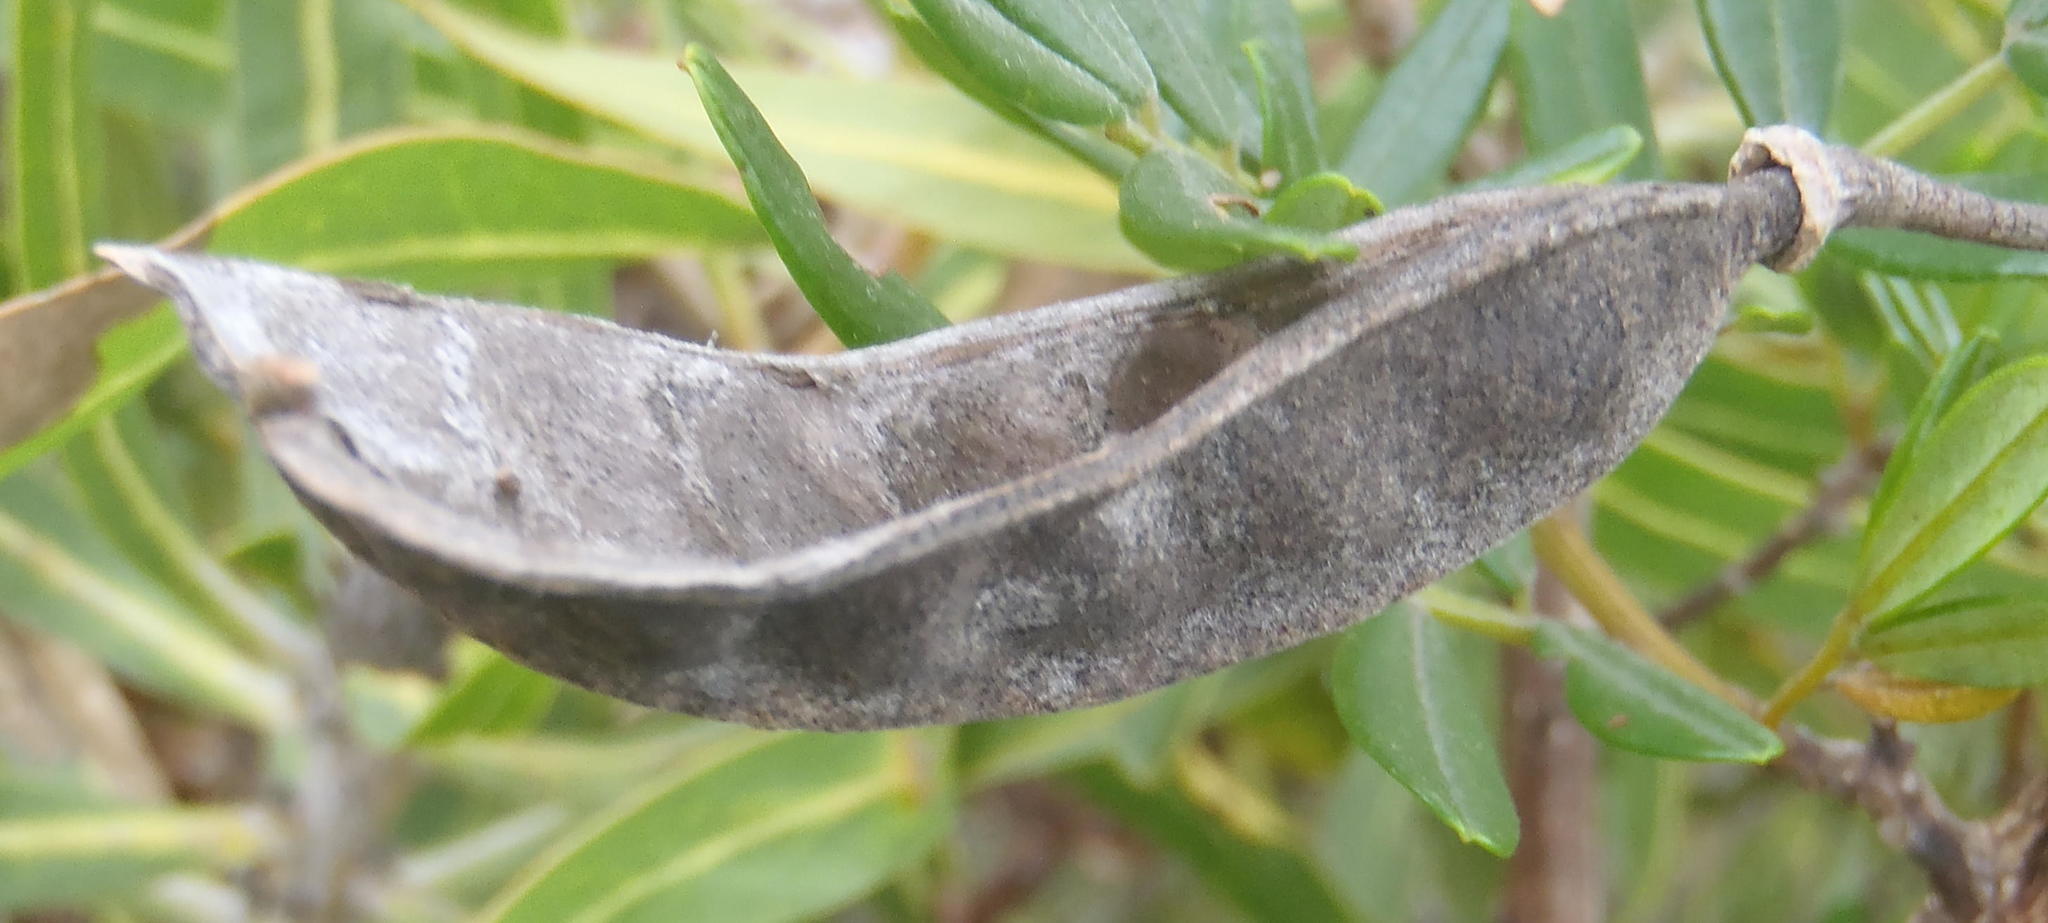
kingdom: Plantae
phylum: Tracheophyta
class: Magnoliopsida
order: Fabales
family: Fabaceae
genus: Virgilia
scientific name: Virgilia divaricata
